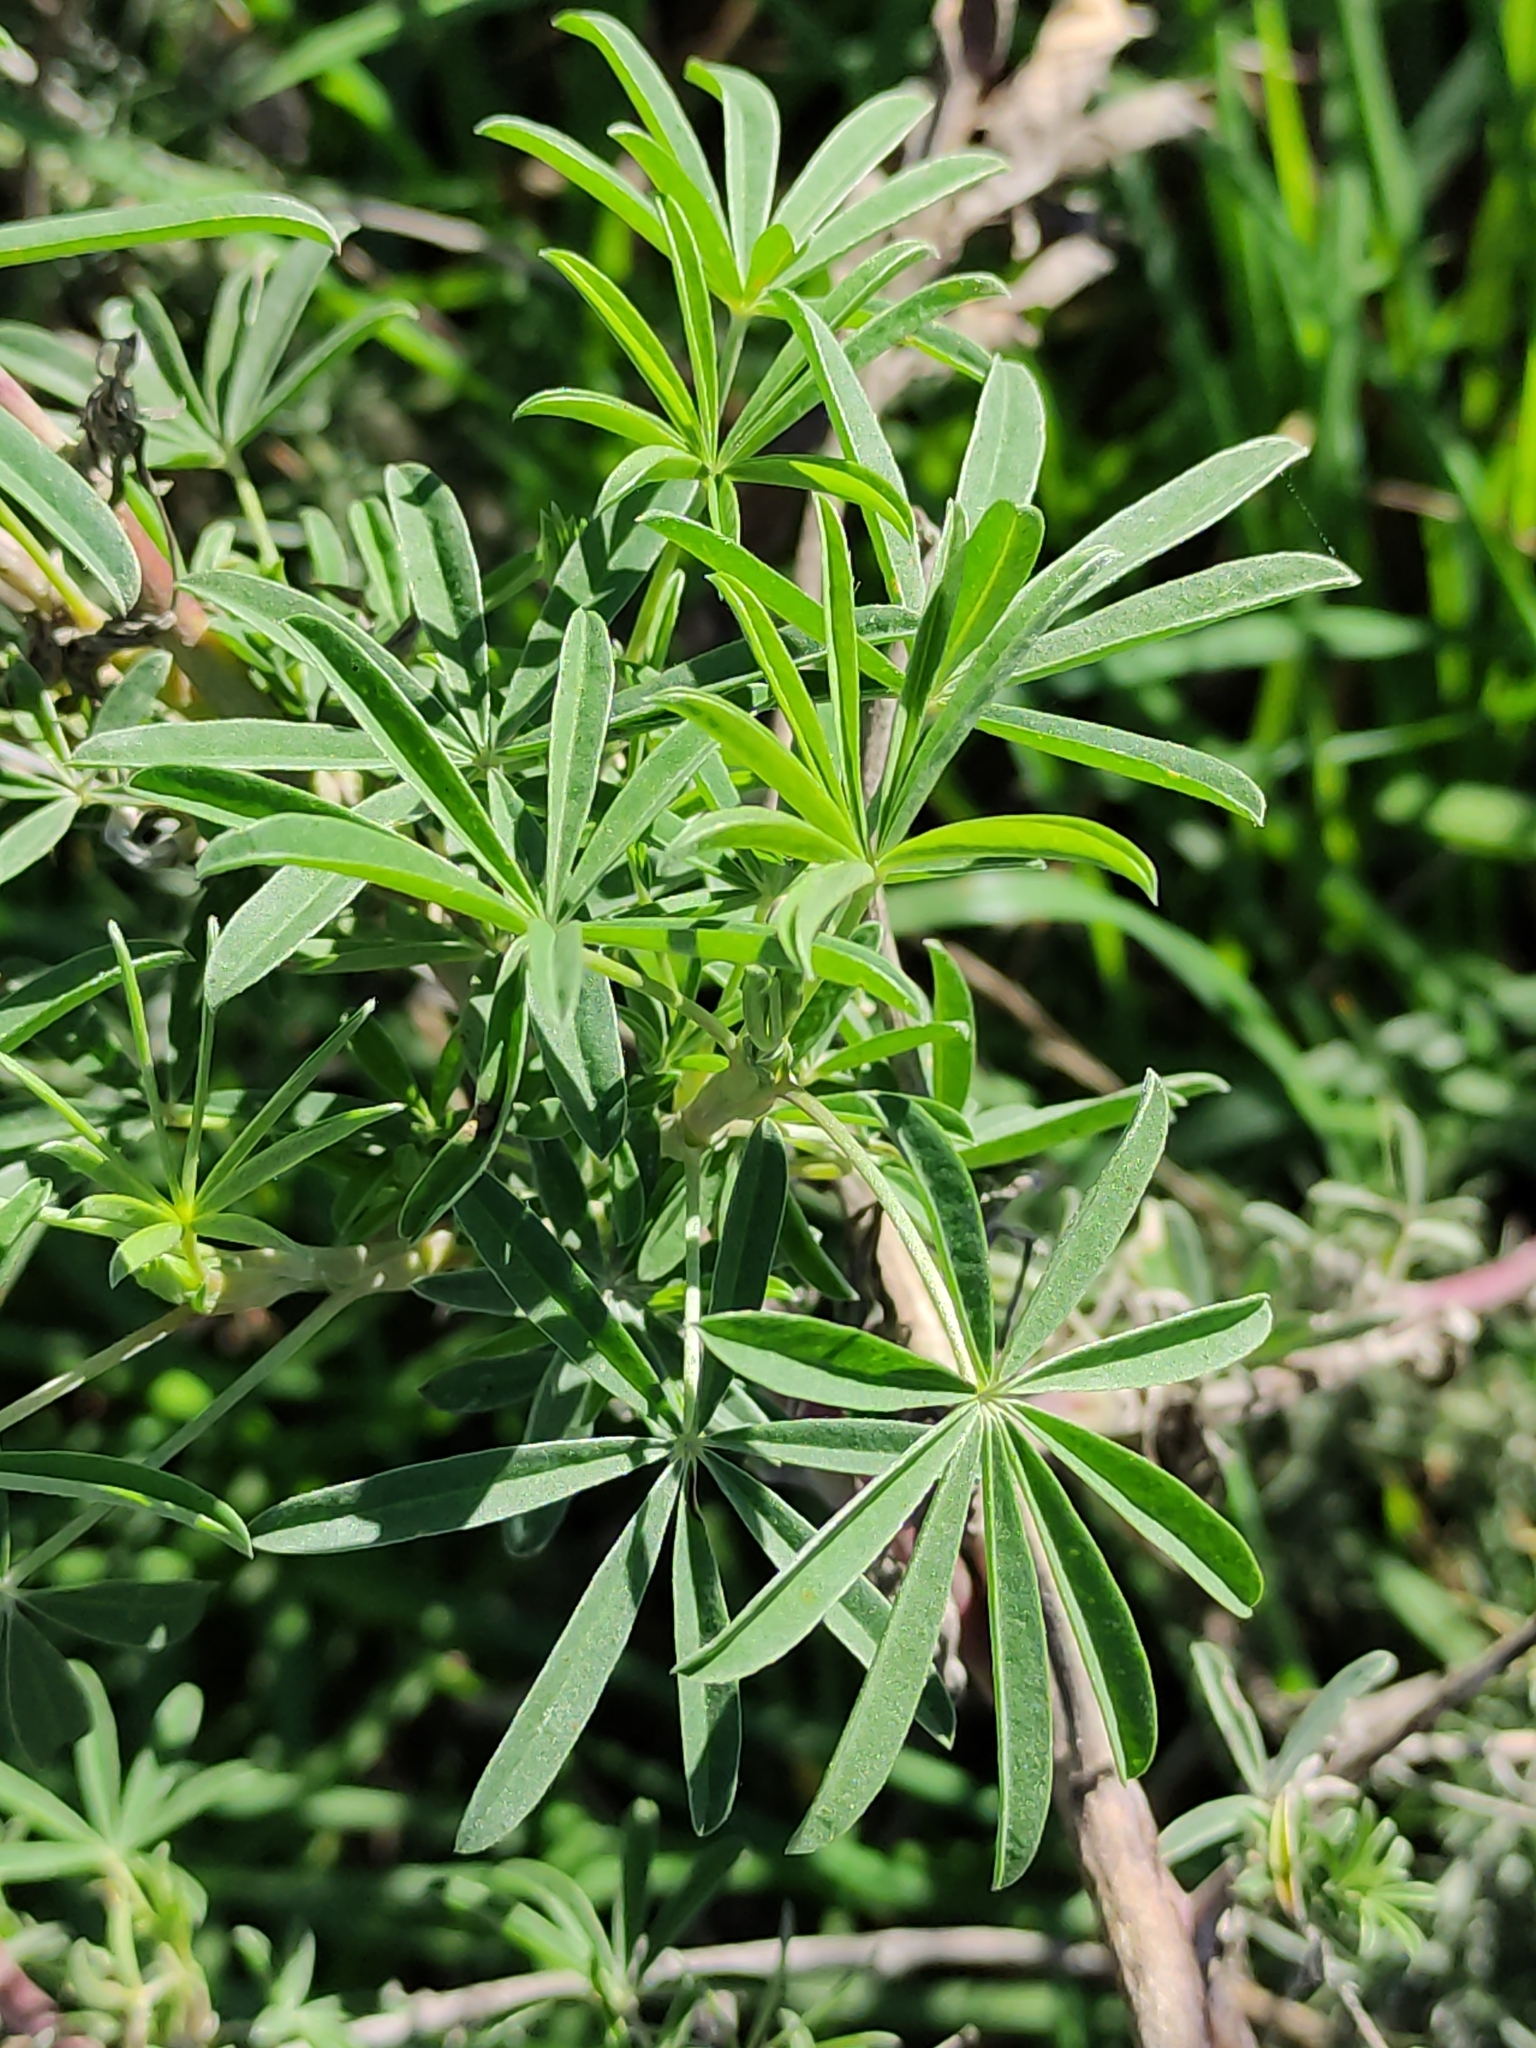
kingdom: Plantae
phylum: Tracheophyta
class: Magnoliopsida
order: Fabales
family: Fabaceae
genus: Lupinus
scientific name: Lupinus polyphyllus
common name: Garden lupin
